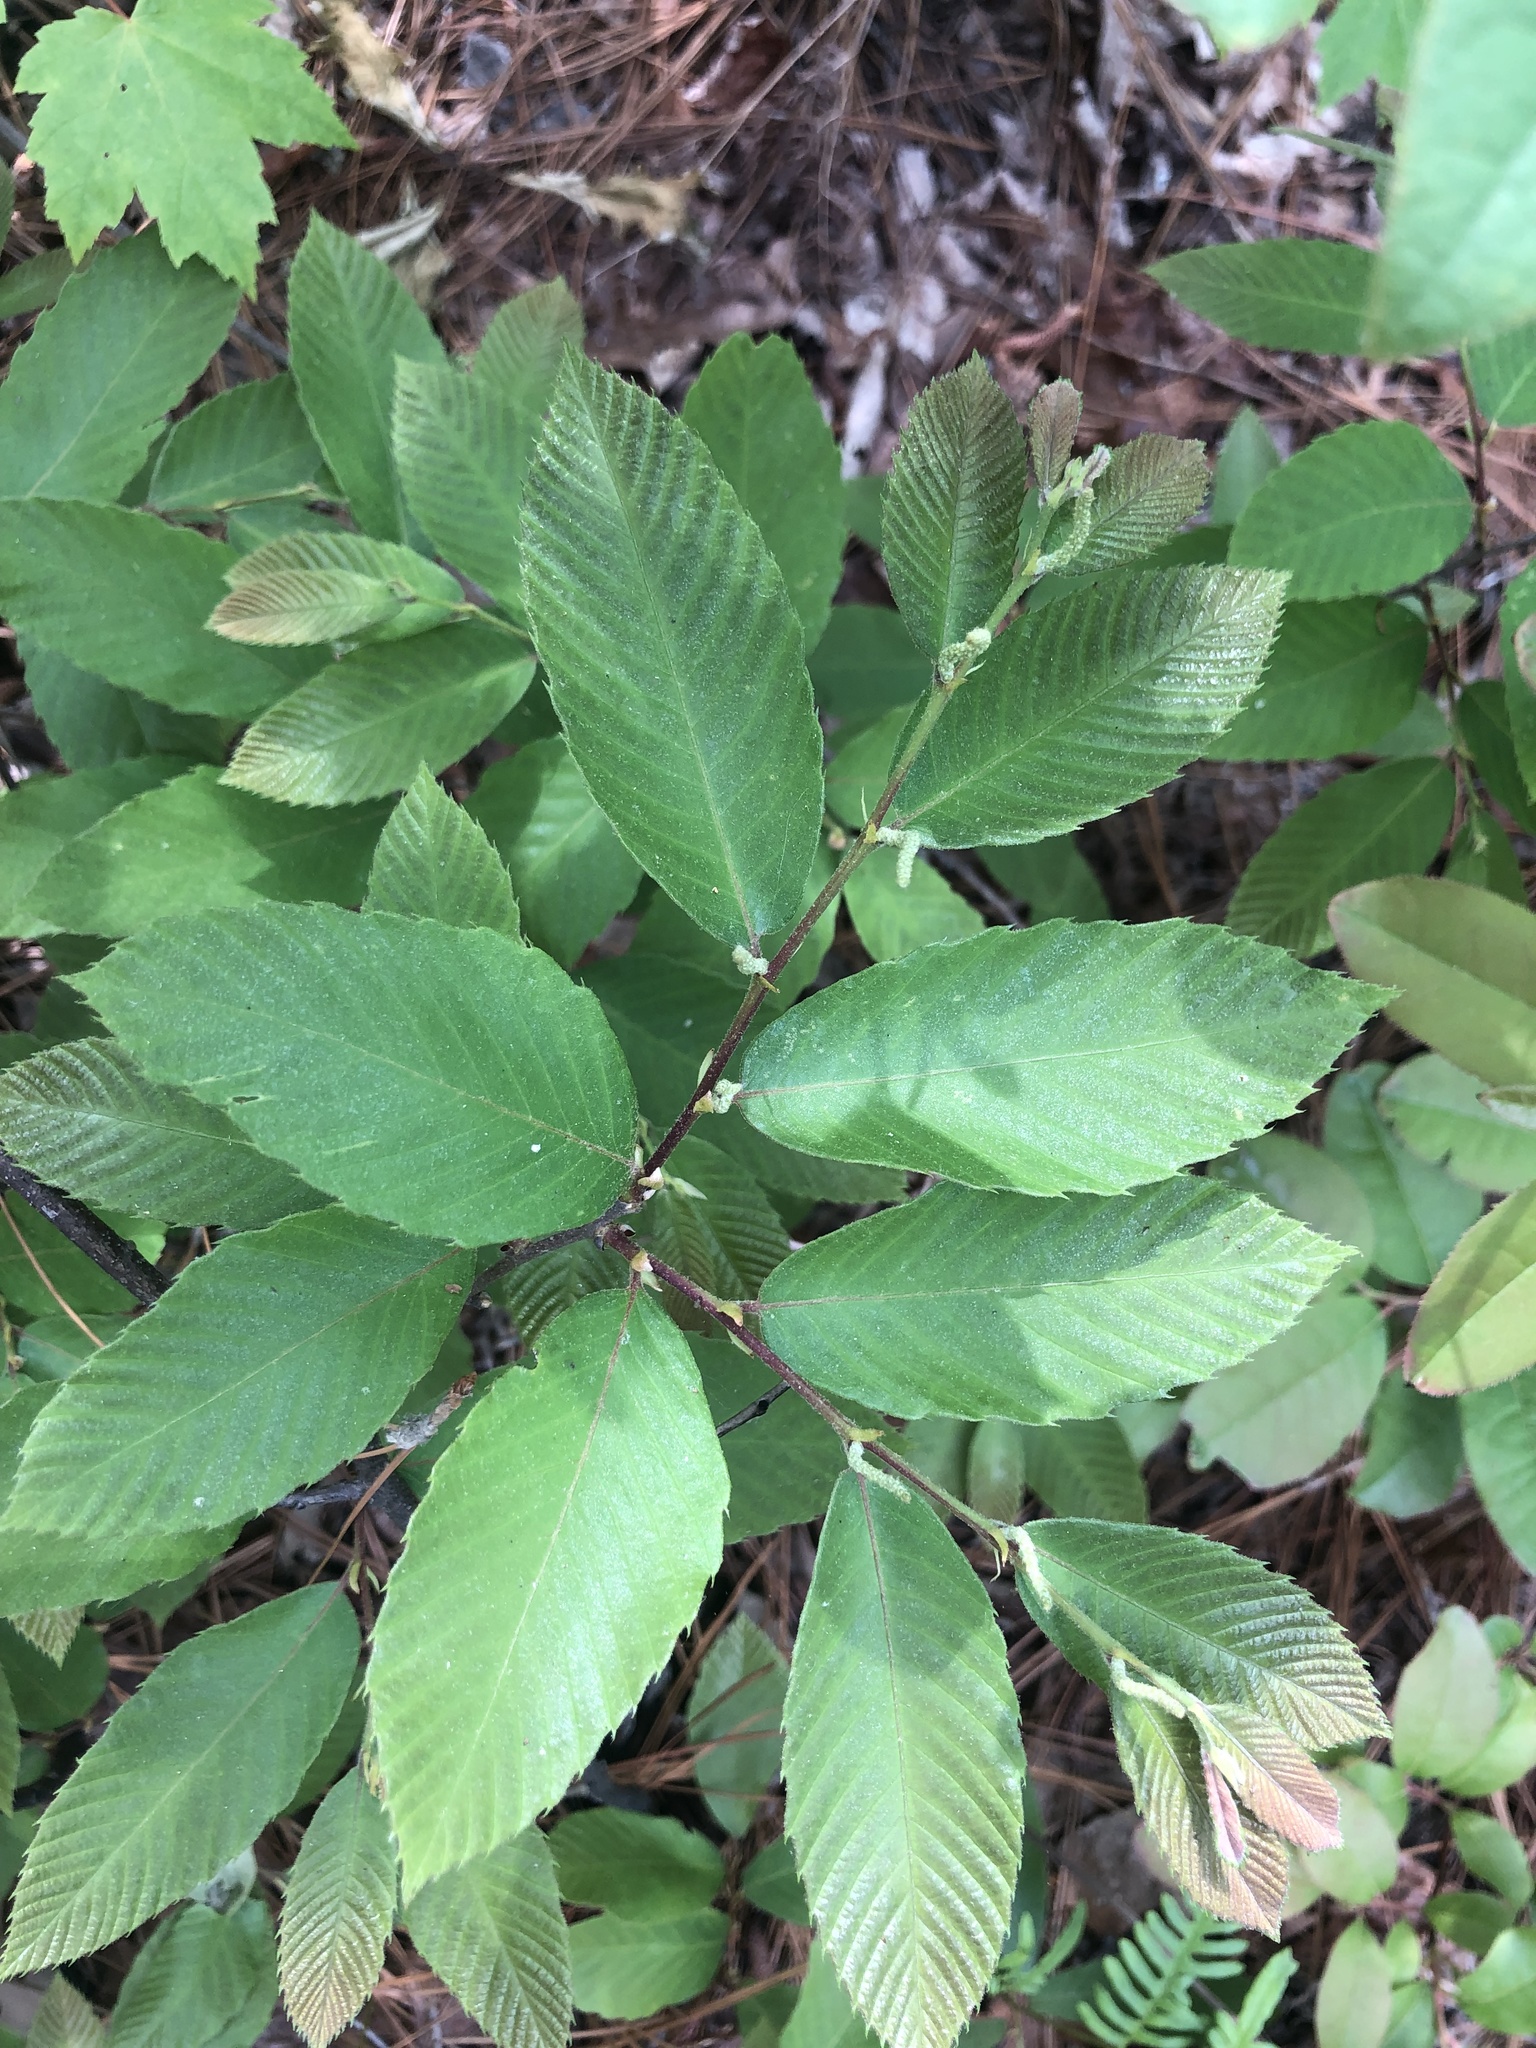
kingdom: Plantae
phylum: Tracheophyta
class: Magnoliopsida
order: Fagales
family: Fagaceae
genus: Castanea
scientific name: Castanea pumila
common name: Chinkapin
